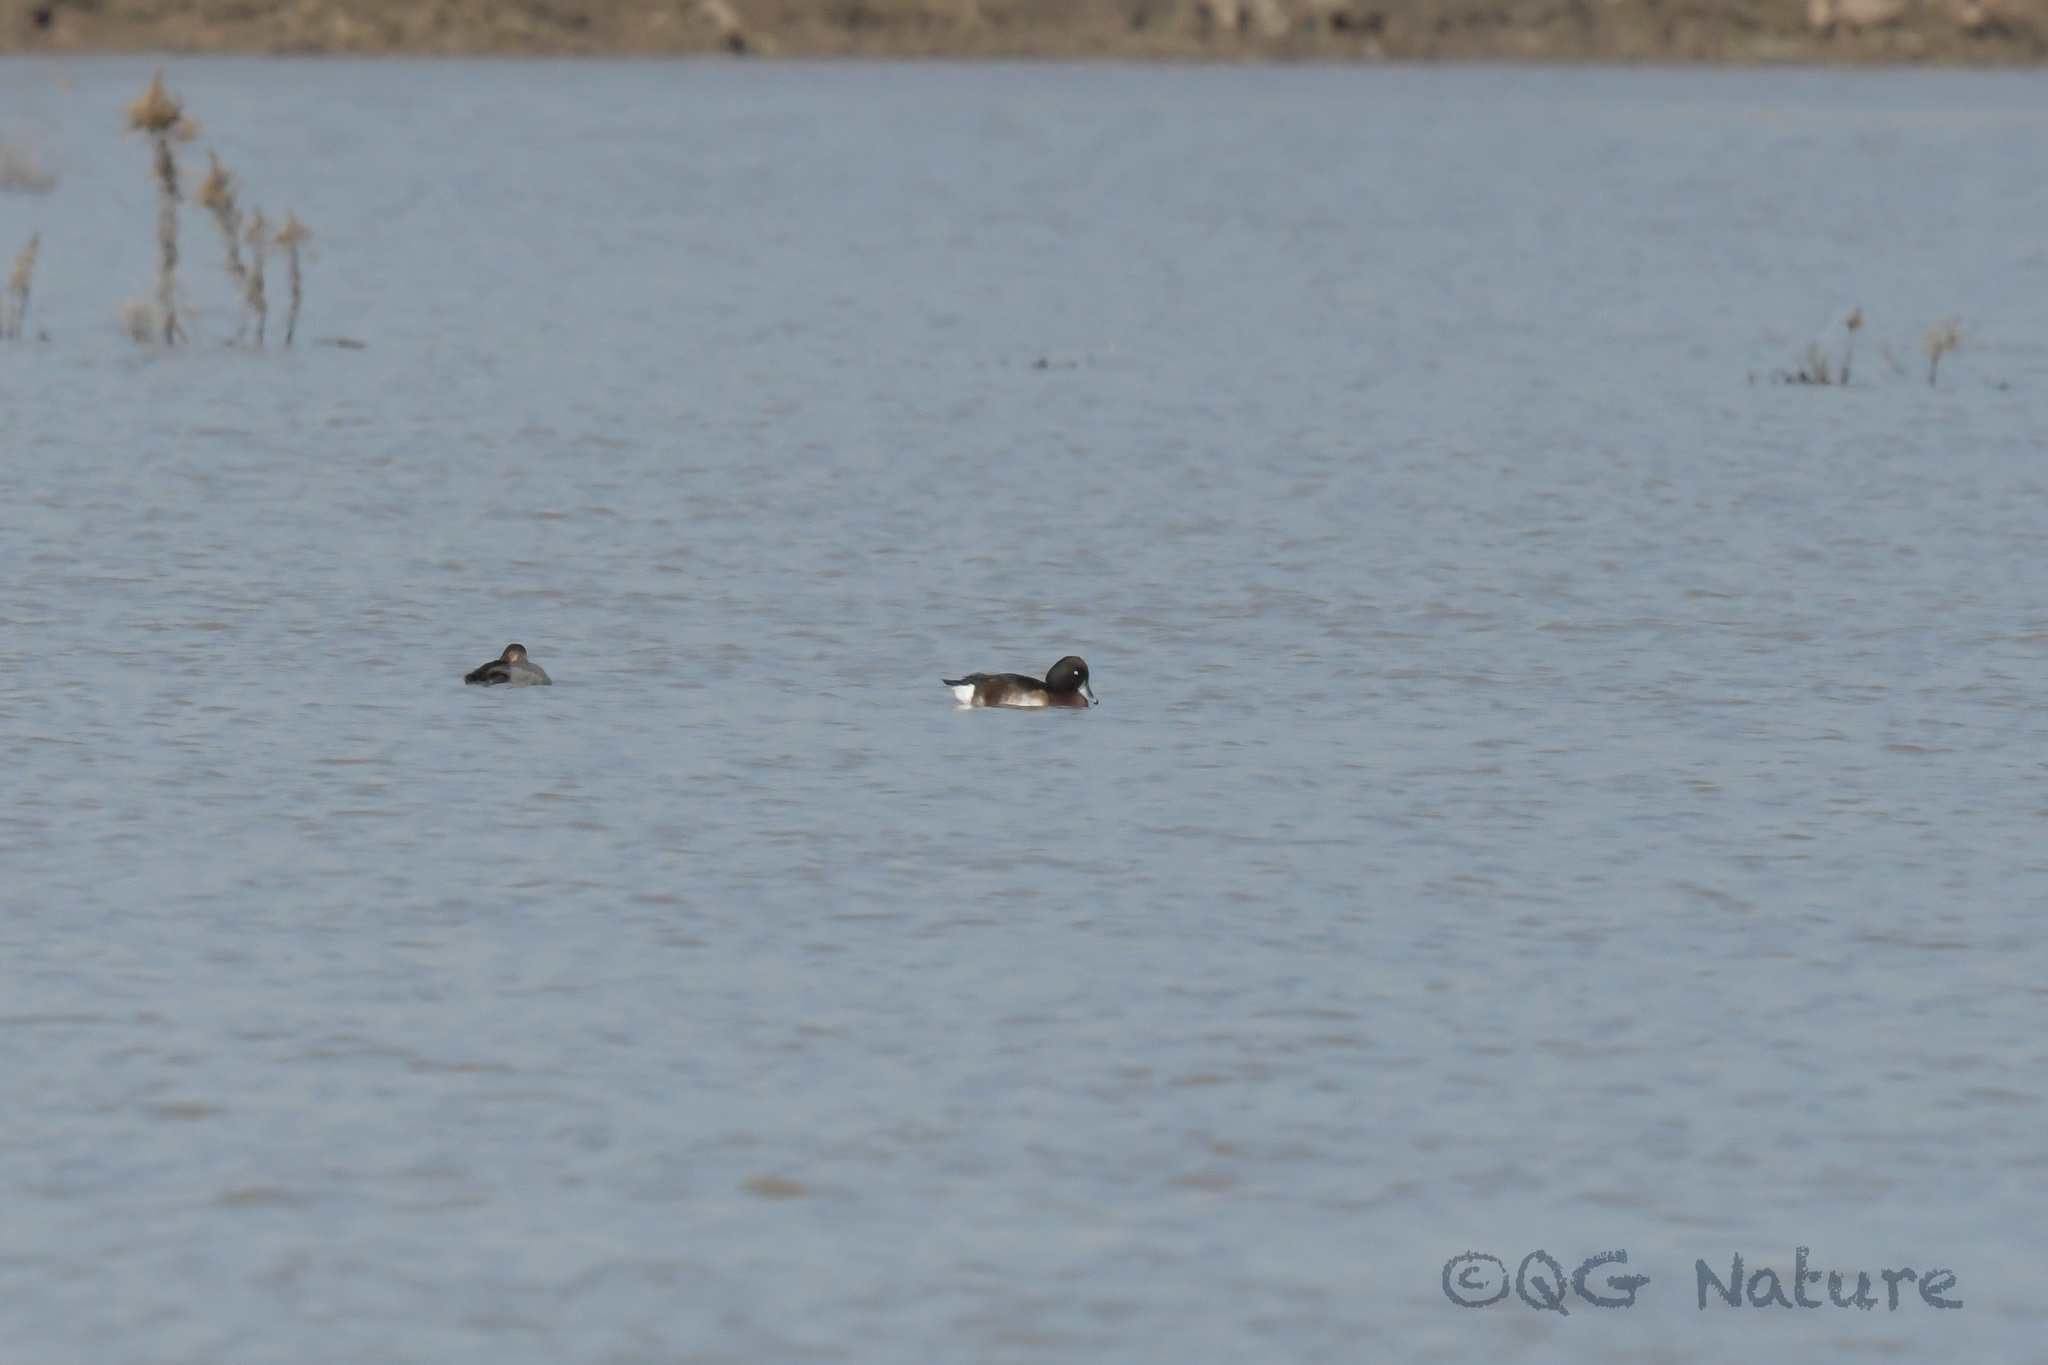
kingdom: Animalia
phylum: Chordata
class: Aves
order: Anseriformes
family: Anatidae
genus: Aythya
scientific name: Aythya baeri
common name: Baer's pochard
